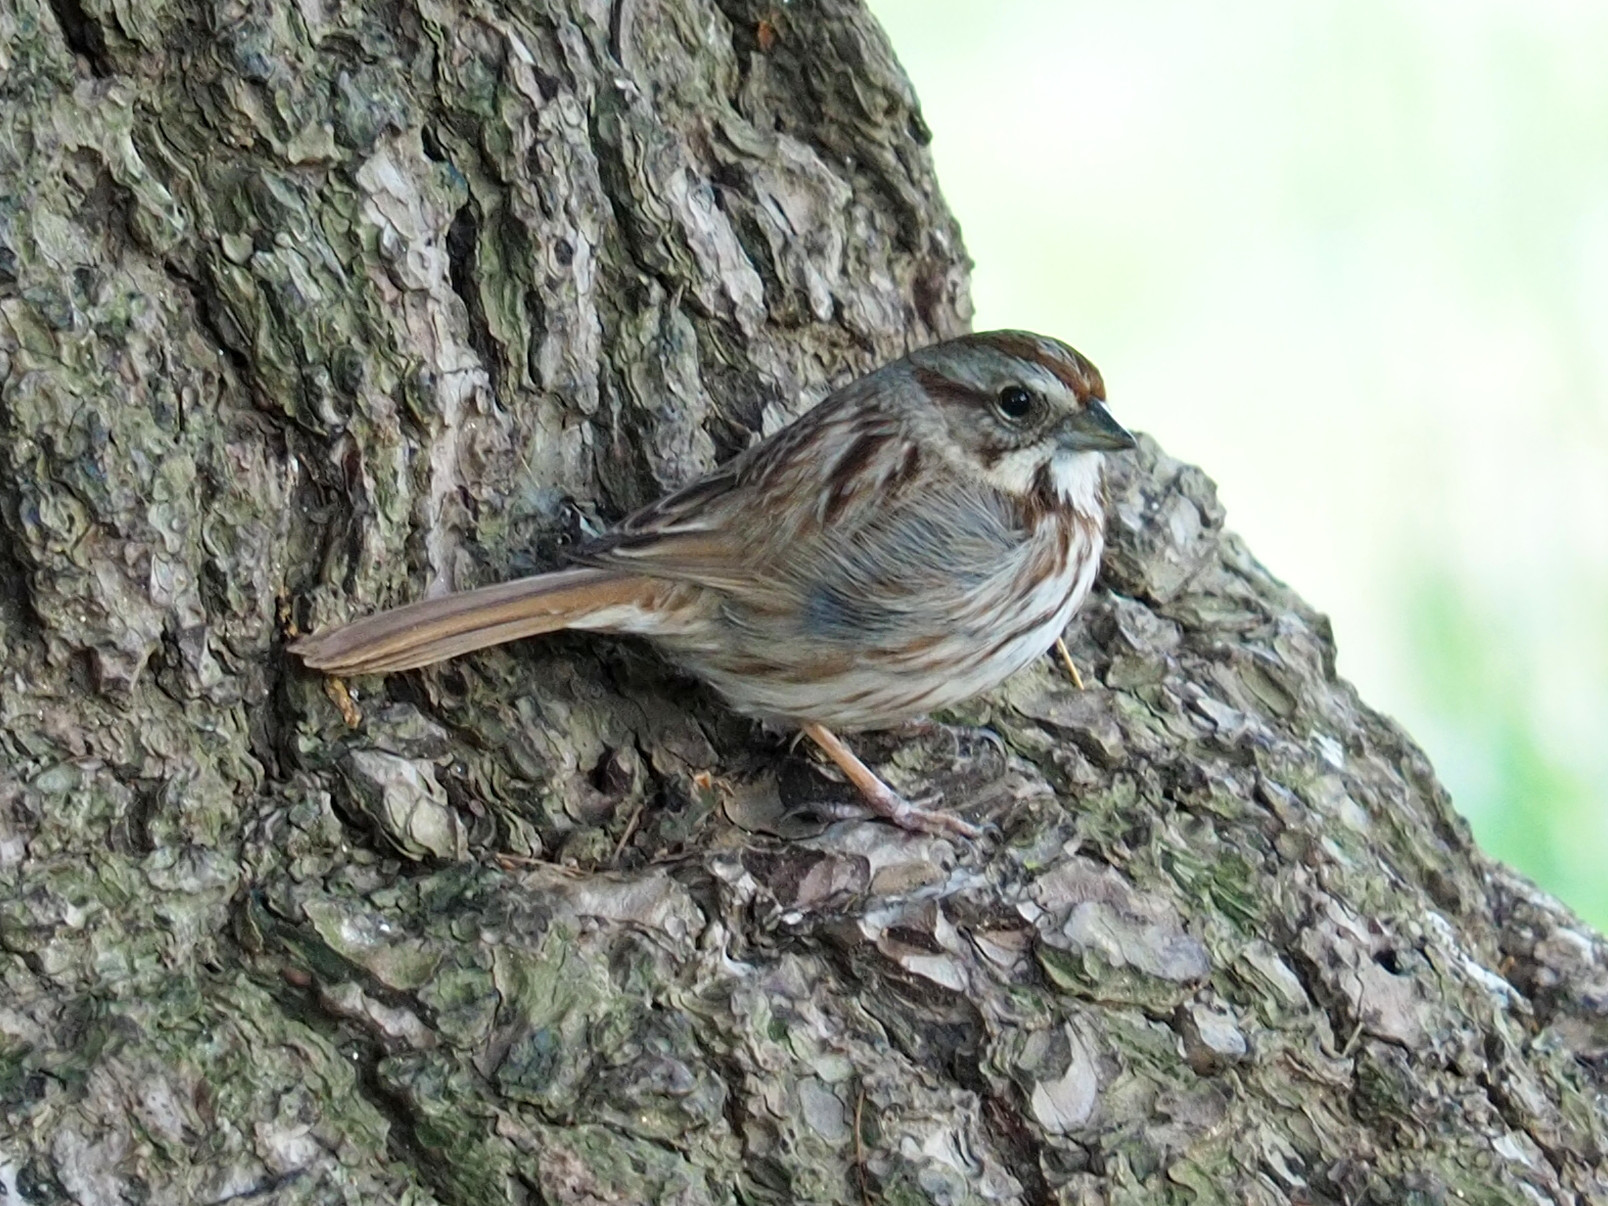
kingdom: Animalia
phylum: Chordata
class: Aves
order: Passeriformes
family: Passerellidae
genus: Melospiza
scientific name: Melospiza melodia
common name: Song sparrow
